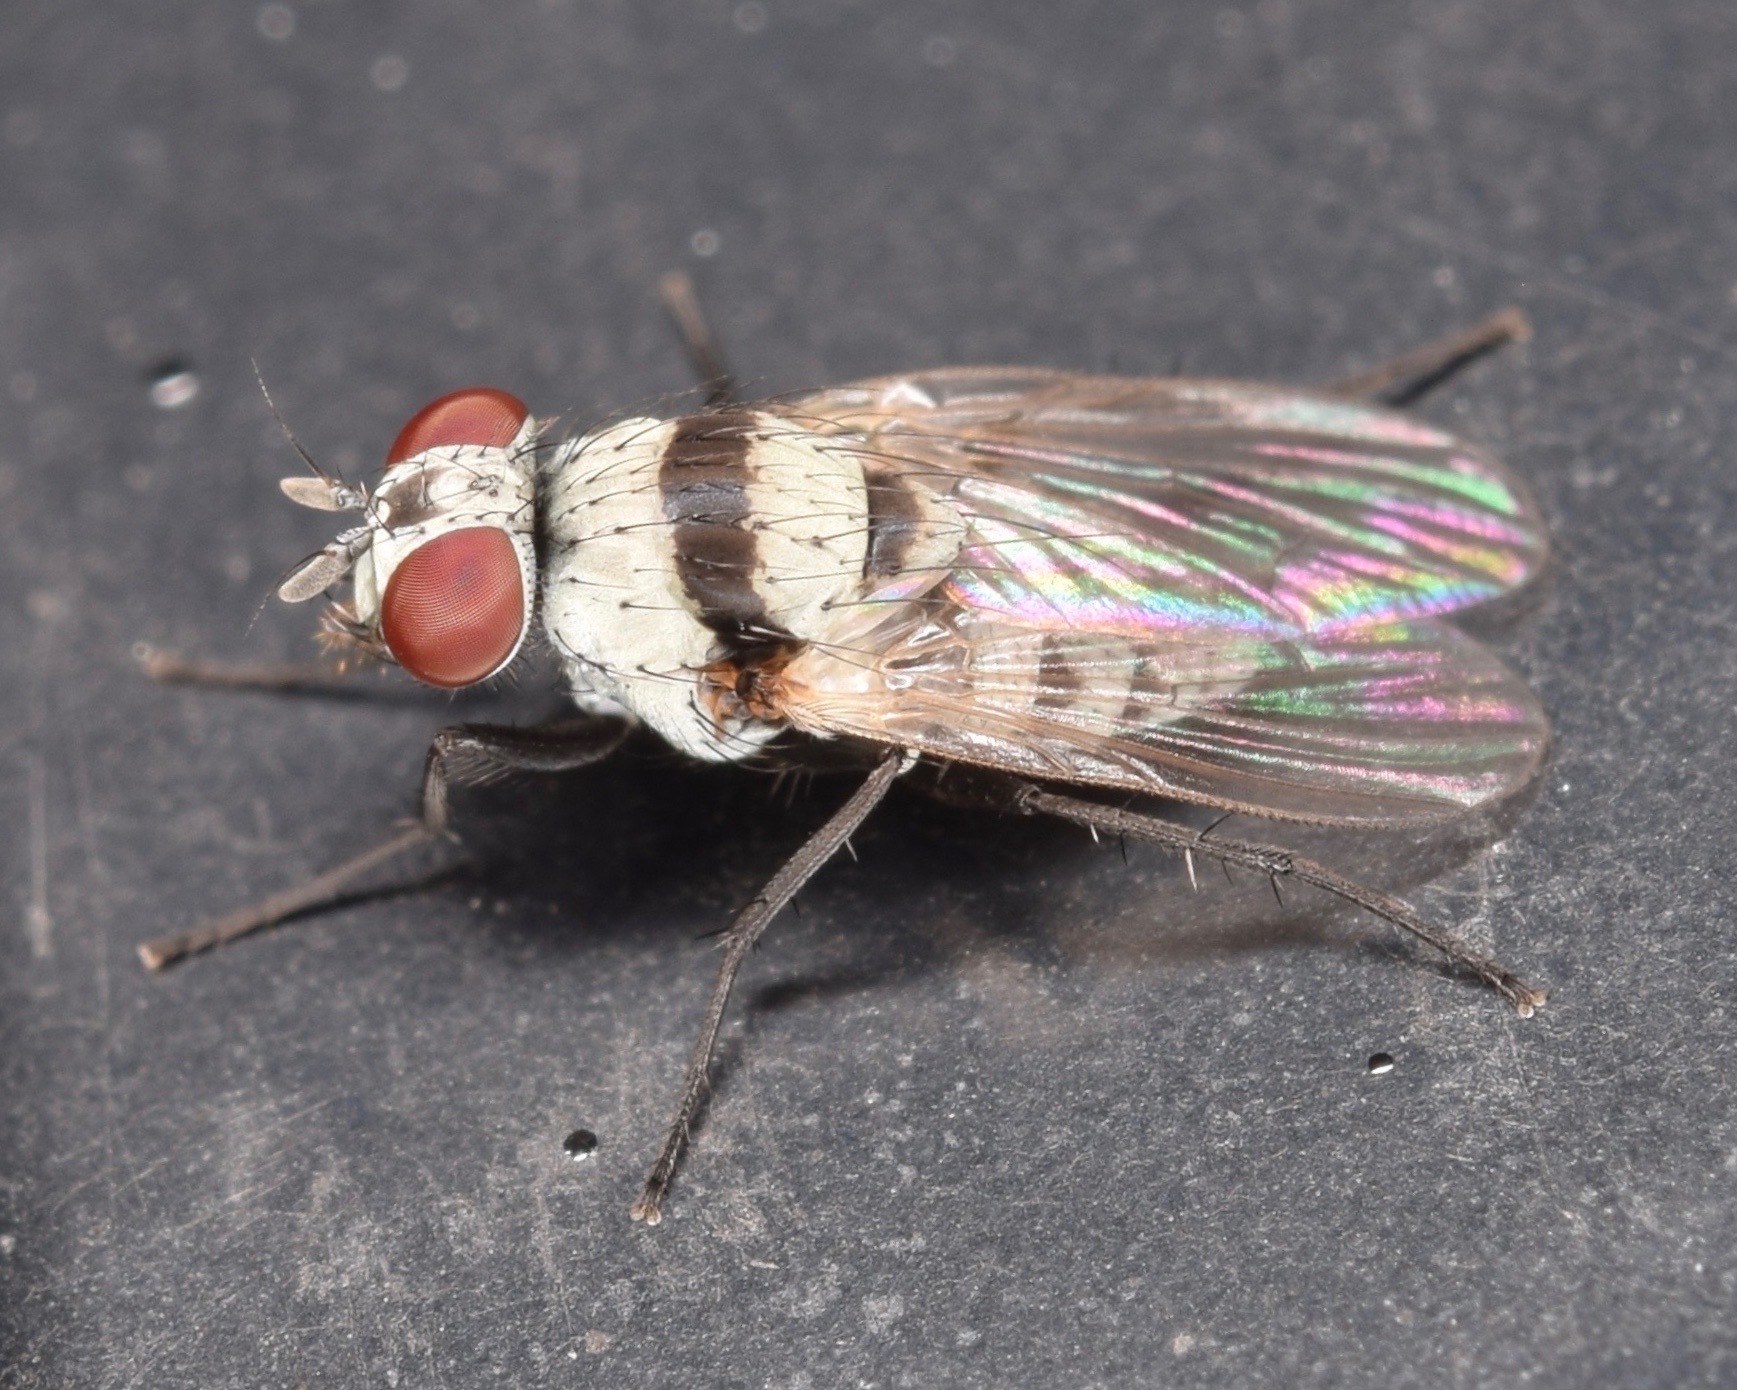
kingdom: Animalia
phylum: Arthropoda
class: Insecta
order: Diptera
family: Anthomyiidae
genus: Anthomyia
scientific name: Anthomyia illocata
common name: Fly
